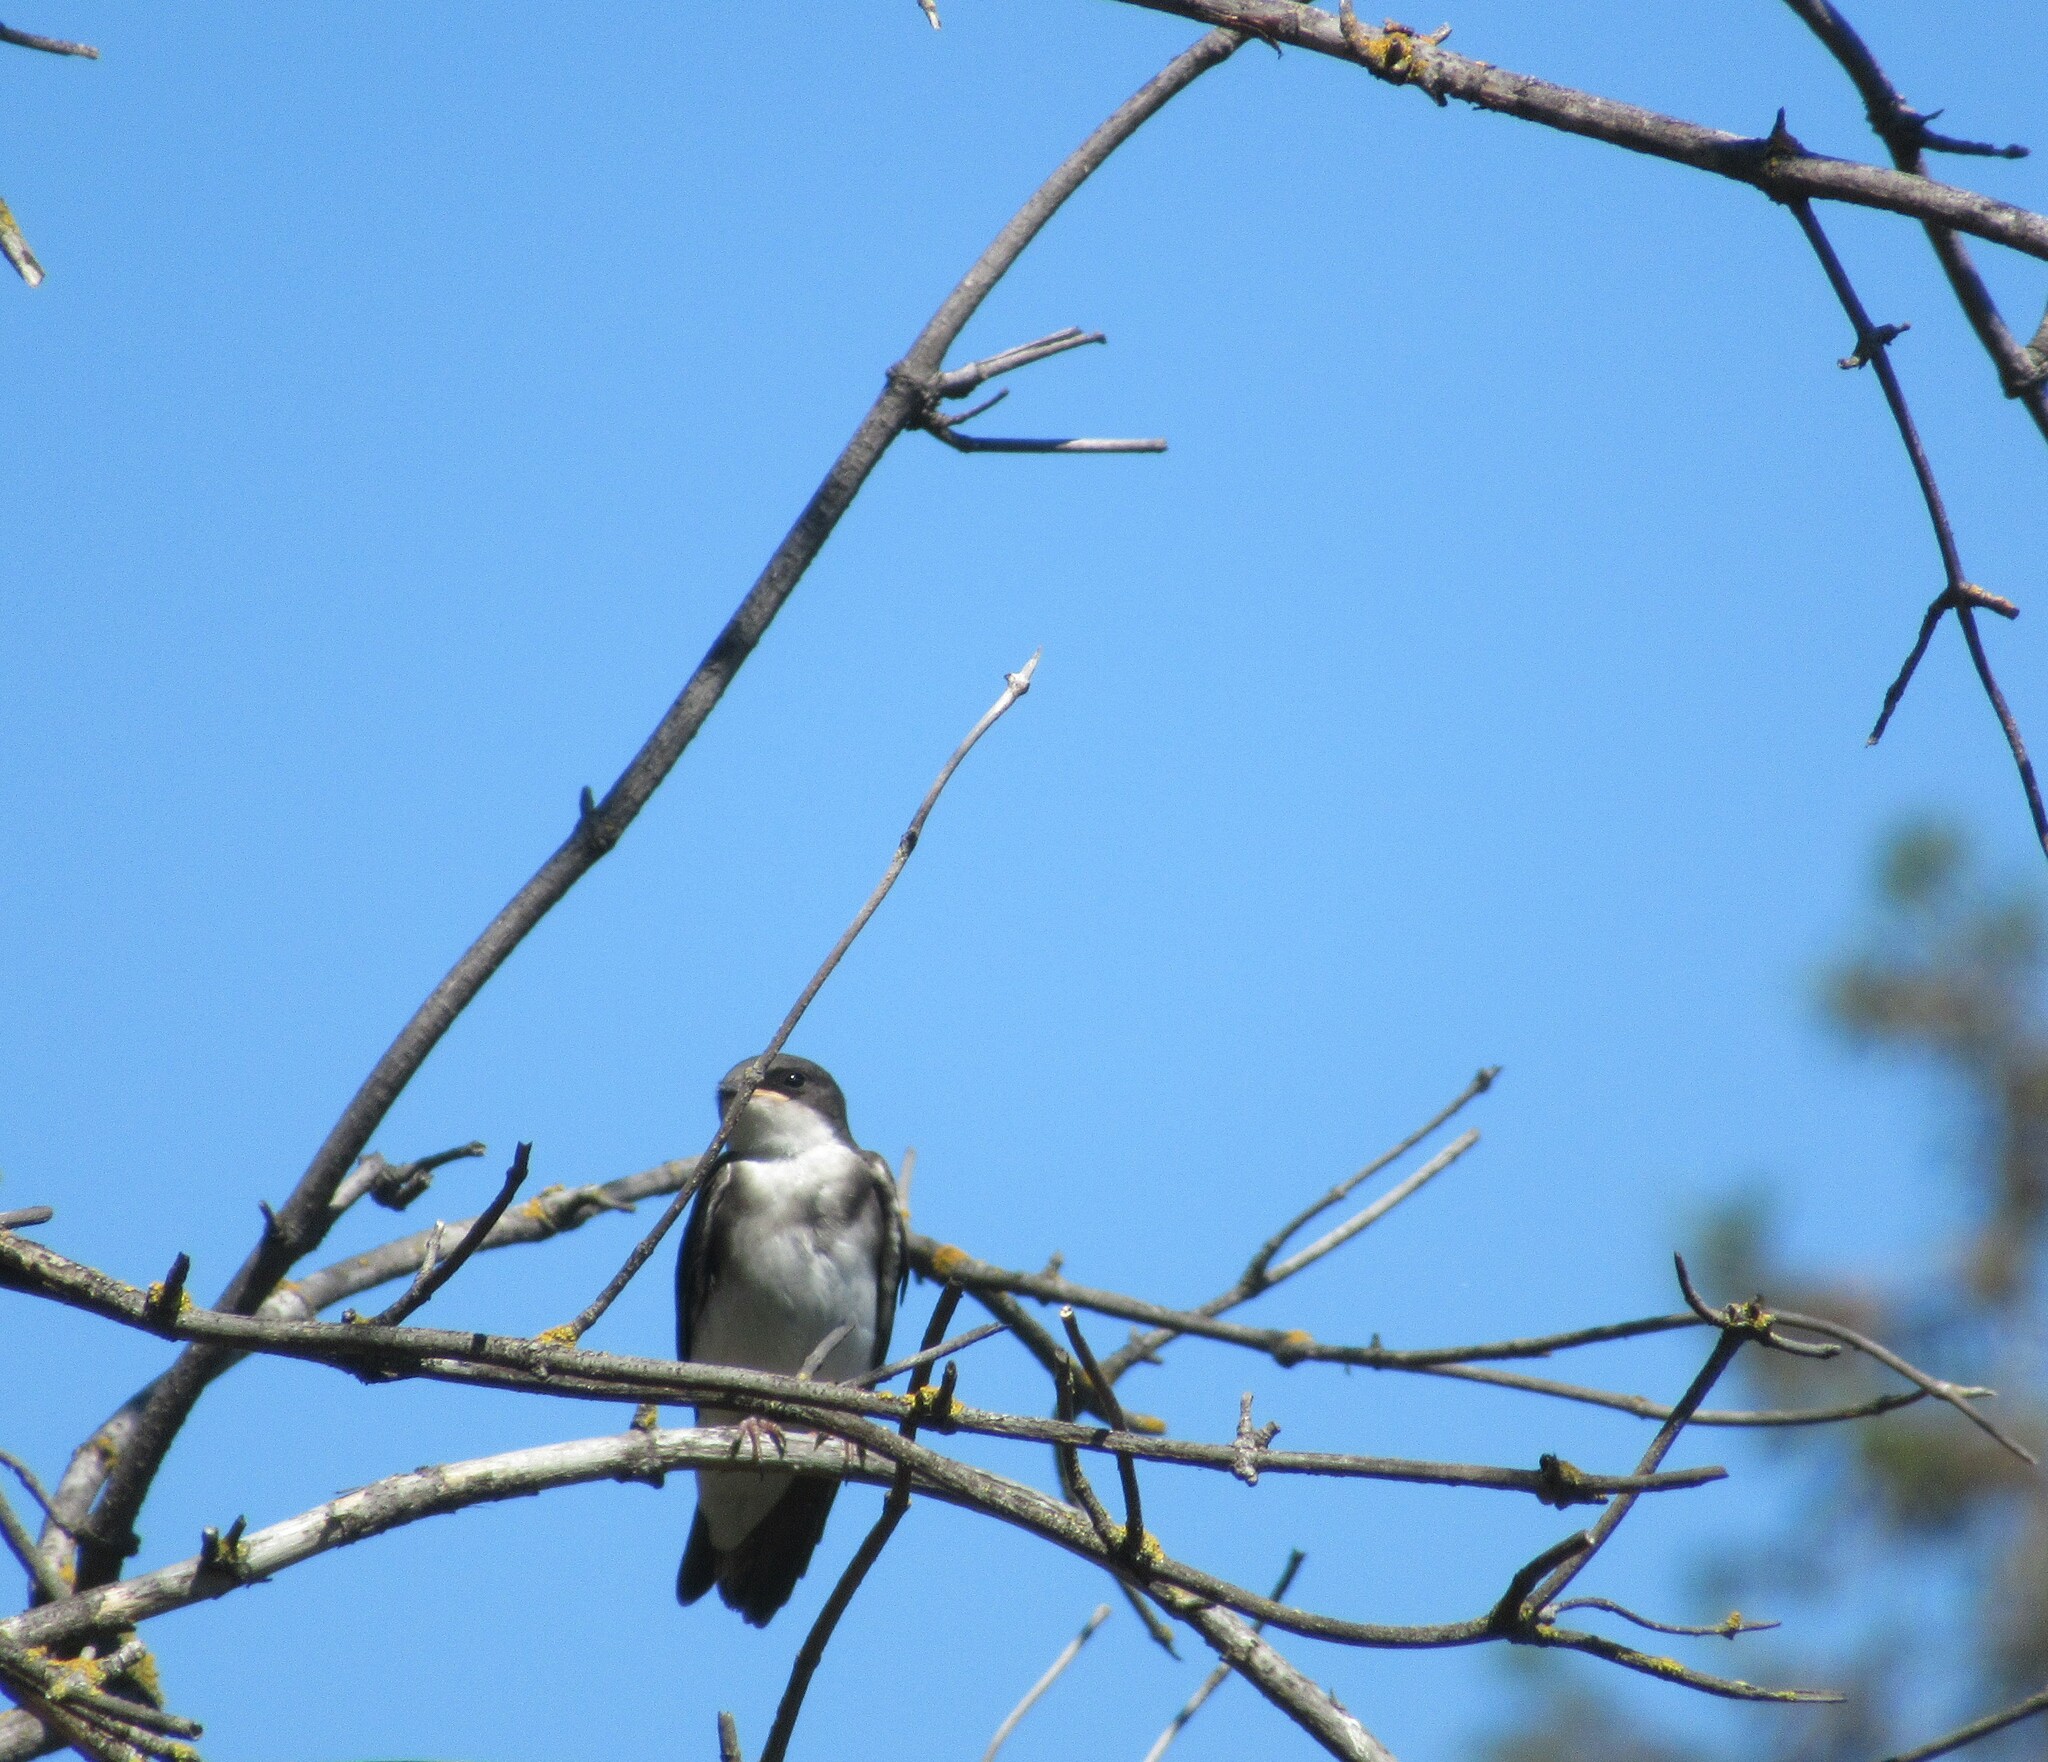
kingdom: Animalia
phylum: Chordata
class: Aves
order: Passeriformes
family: Hirundinidae
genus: Tachycineta
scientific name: Tachycineta bicolor
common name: Tree swallow
